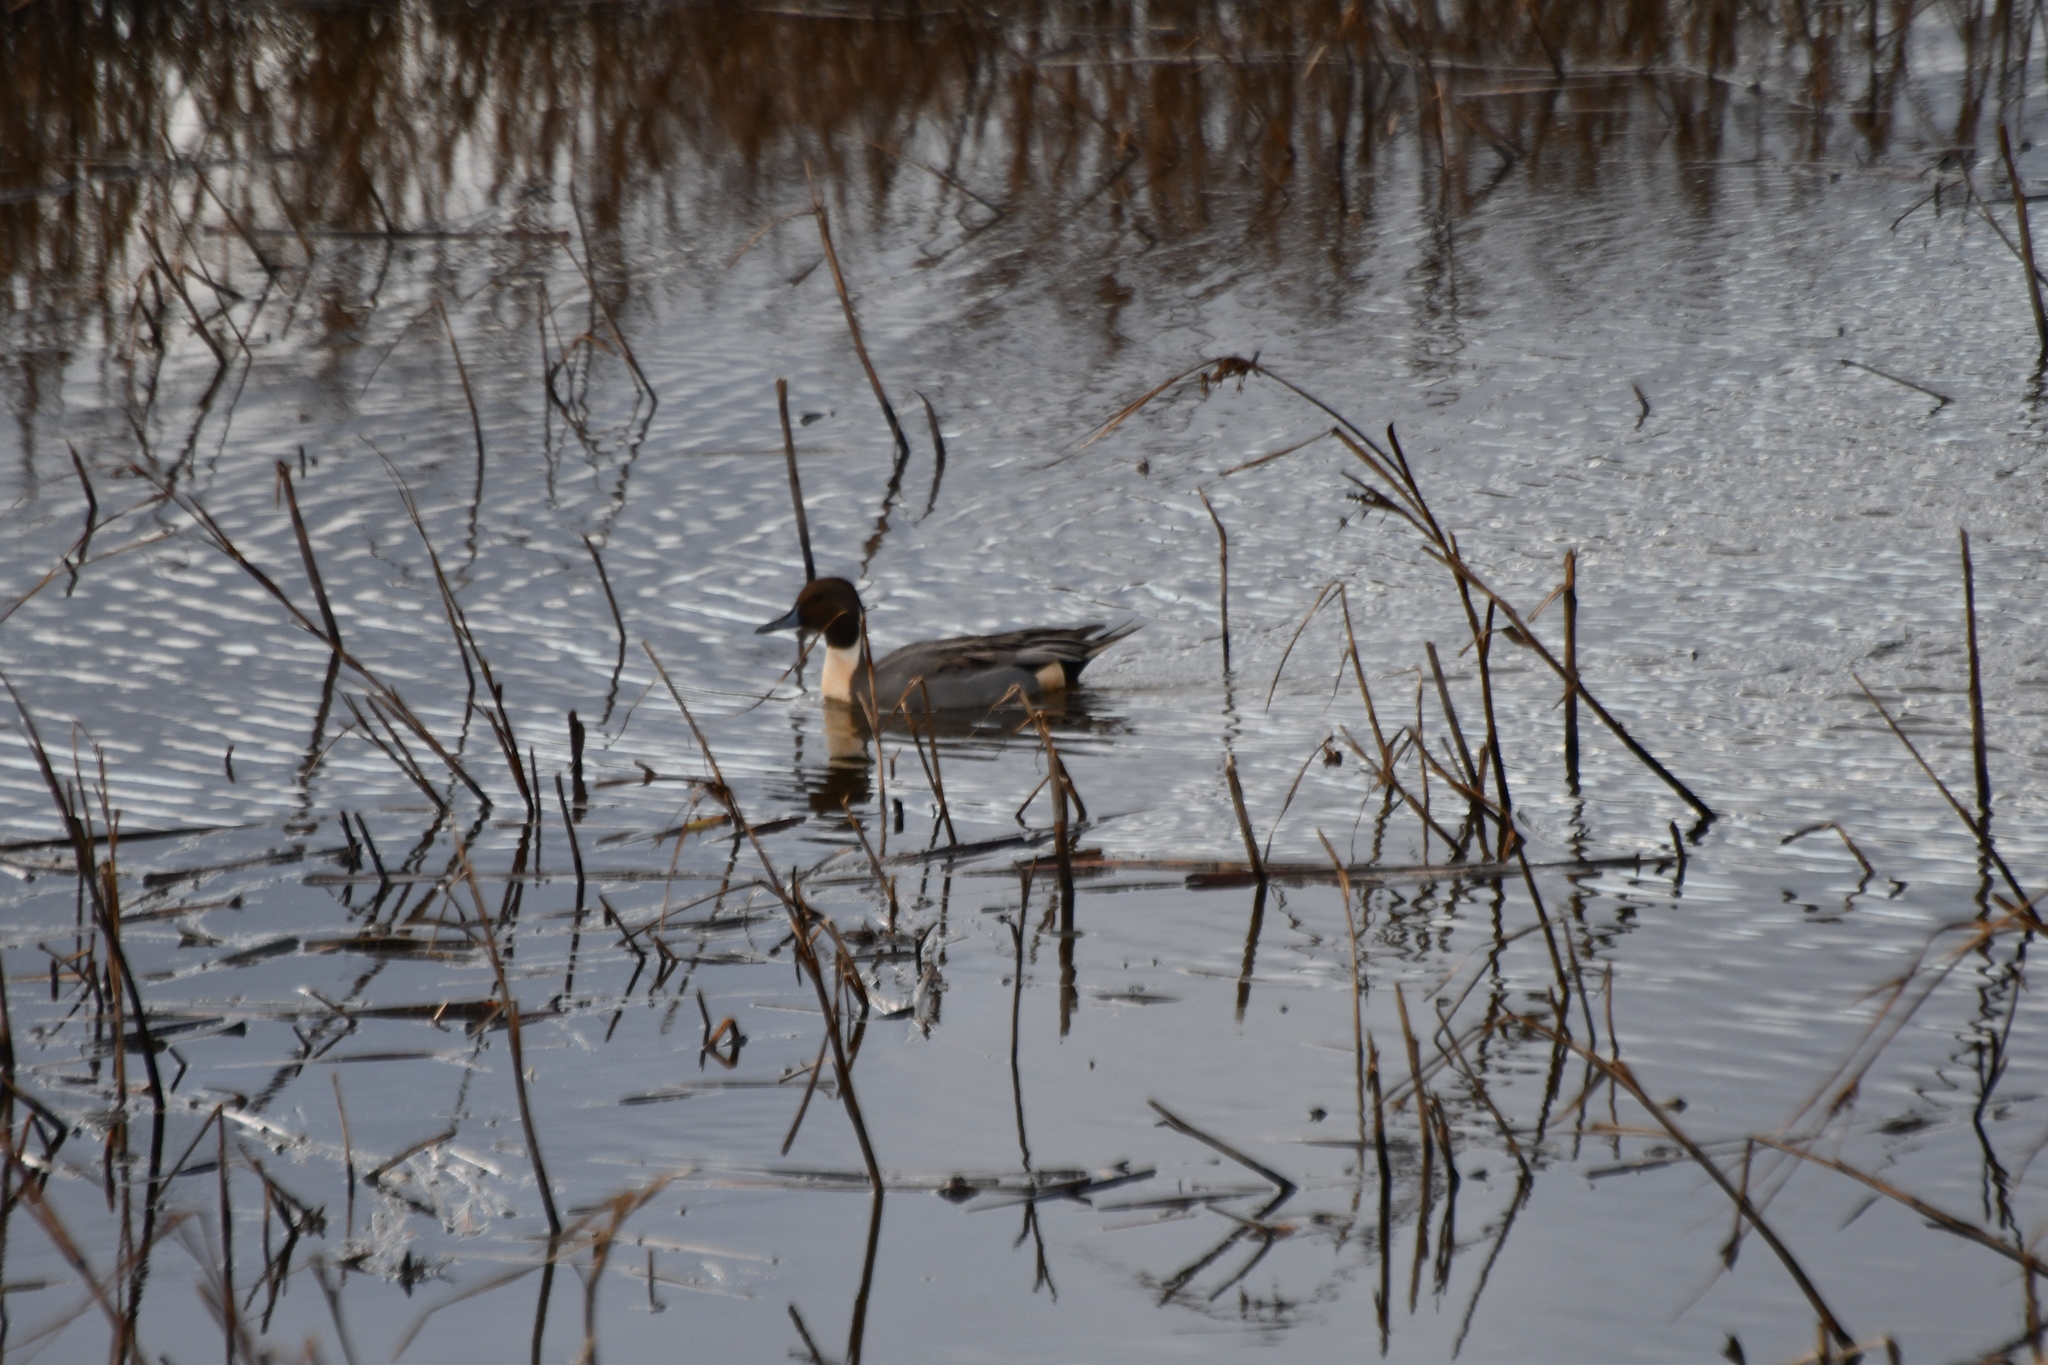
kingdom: Animalia
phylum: Chordata
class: Aves
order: Anseriformes
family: Anatidae
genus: Anas
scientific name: Anas acuta
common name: Northern pintail
